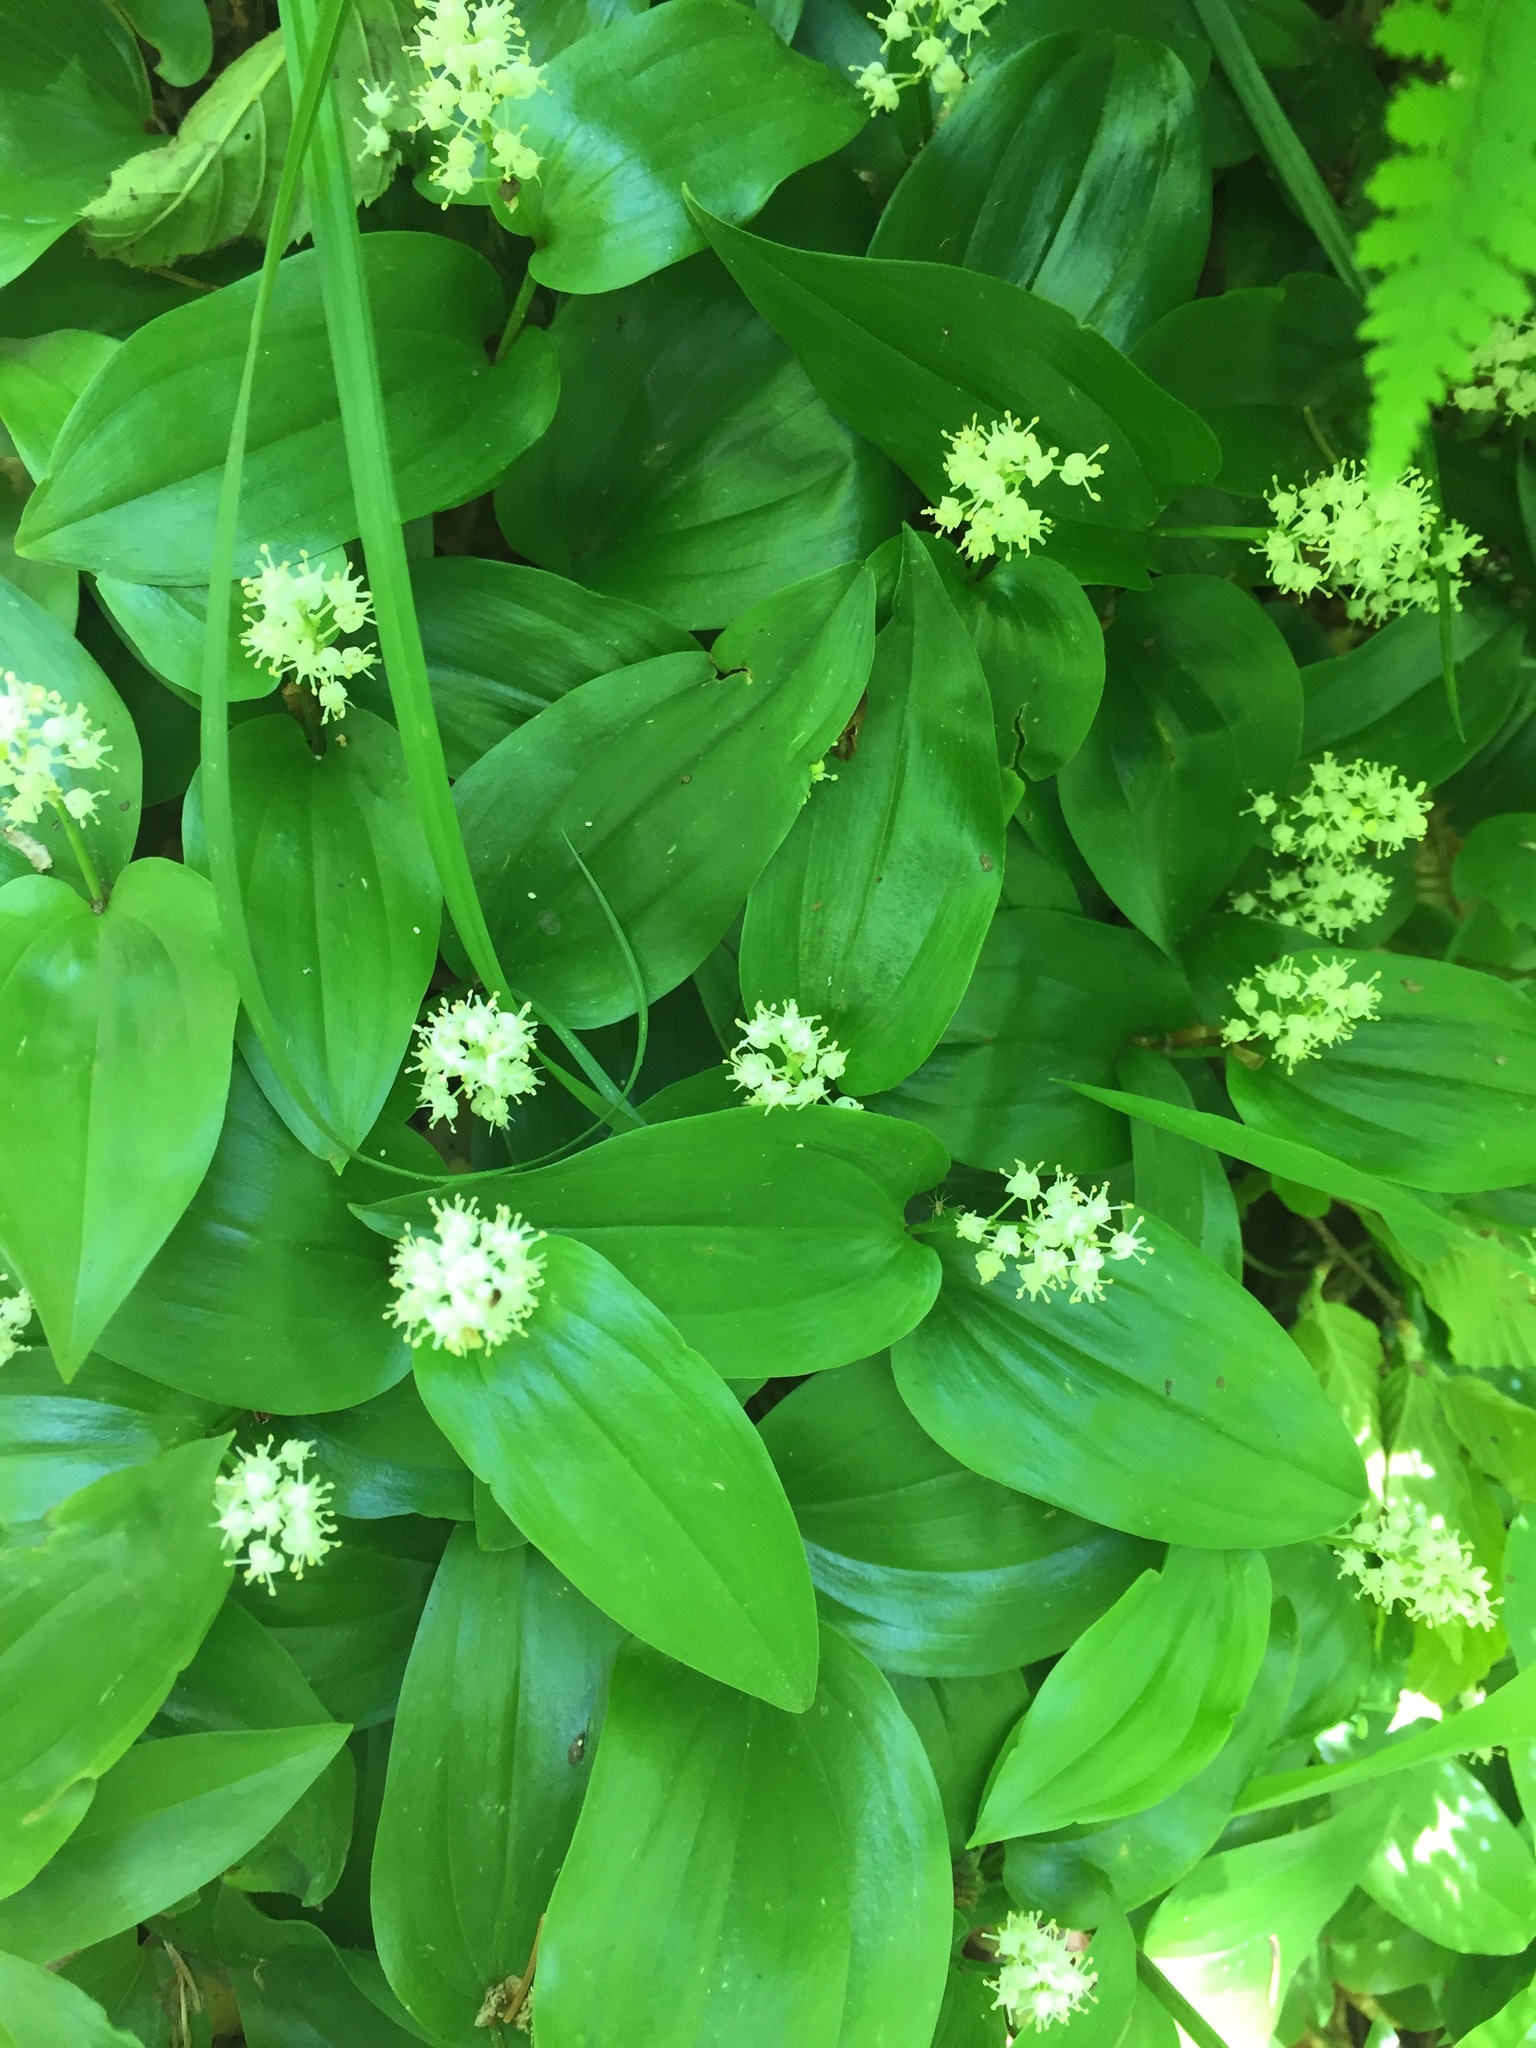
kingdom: Plantae
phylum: Tracheophyta
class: Liliopsida
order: Asparagales
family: Asparagaceae
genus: Maianthemum
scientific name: Maianthemum canadense
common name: False lily-of-the-valley
